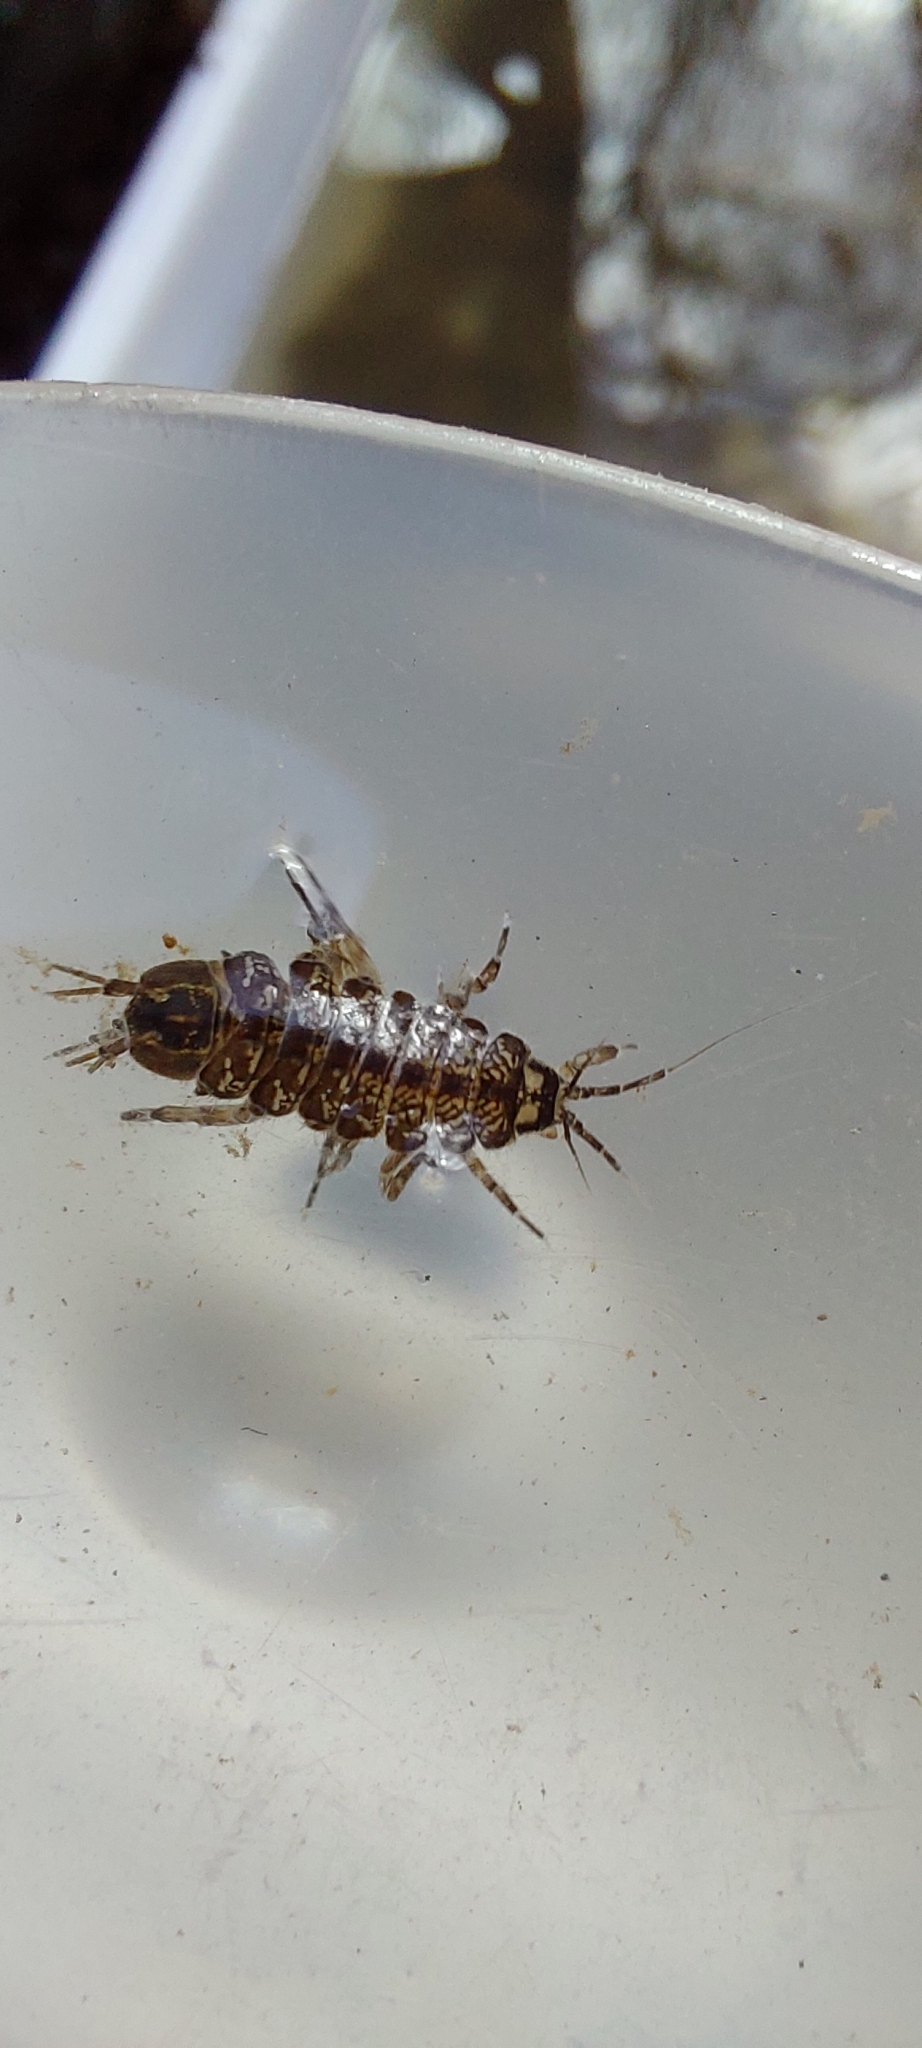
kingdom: Animalia
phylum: Arthropoda
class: Malacostraca
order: Isopoda
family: Asellidae
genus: Asellus
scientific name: Asellus aquaticus
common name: Water hog lice/slaters
